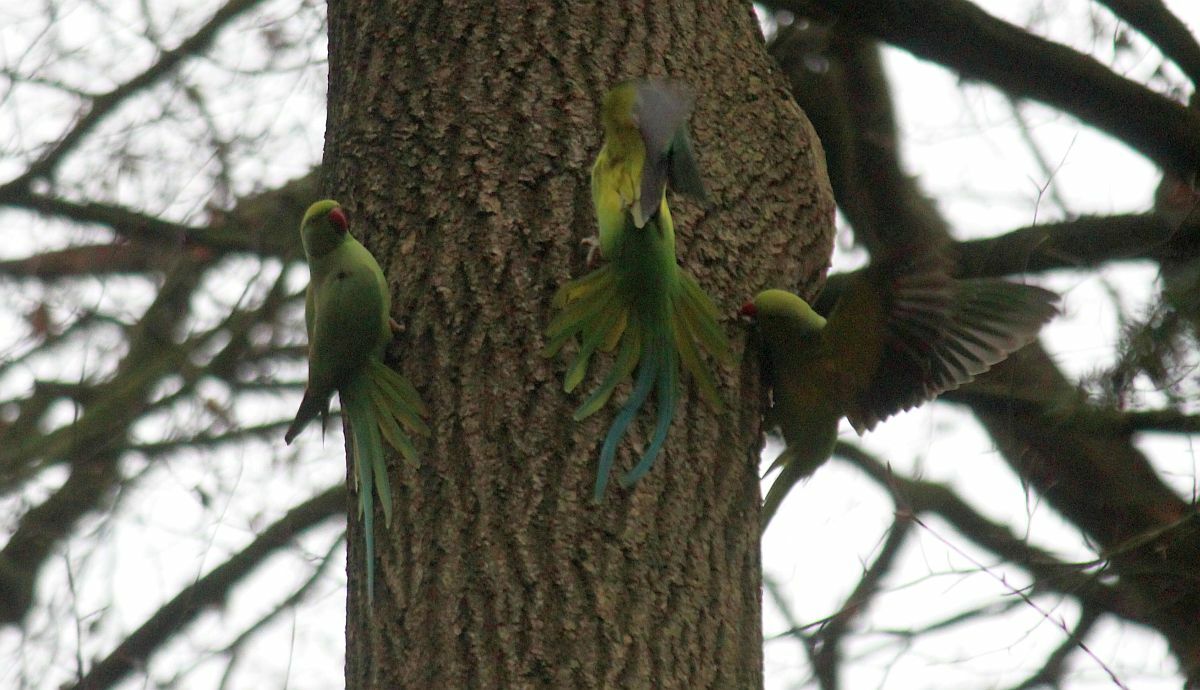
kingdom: Animalia
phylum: Chordata
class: Aves
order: Psittaciformes
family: Psittacidae
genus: Psittacula
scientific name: Psittacula krameri
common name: Rose-ringed parakeet
